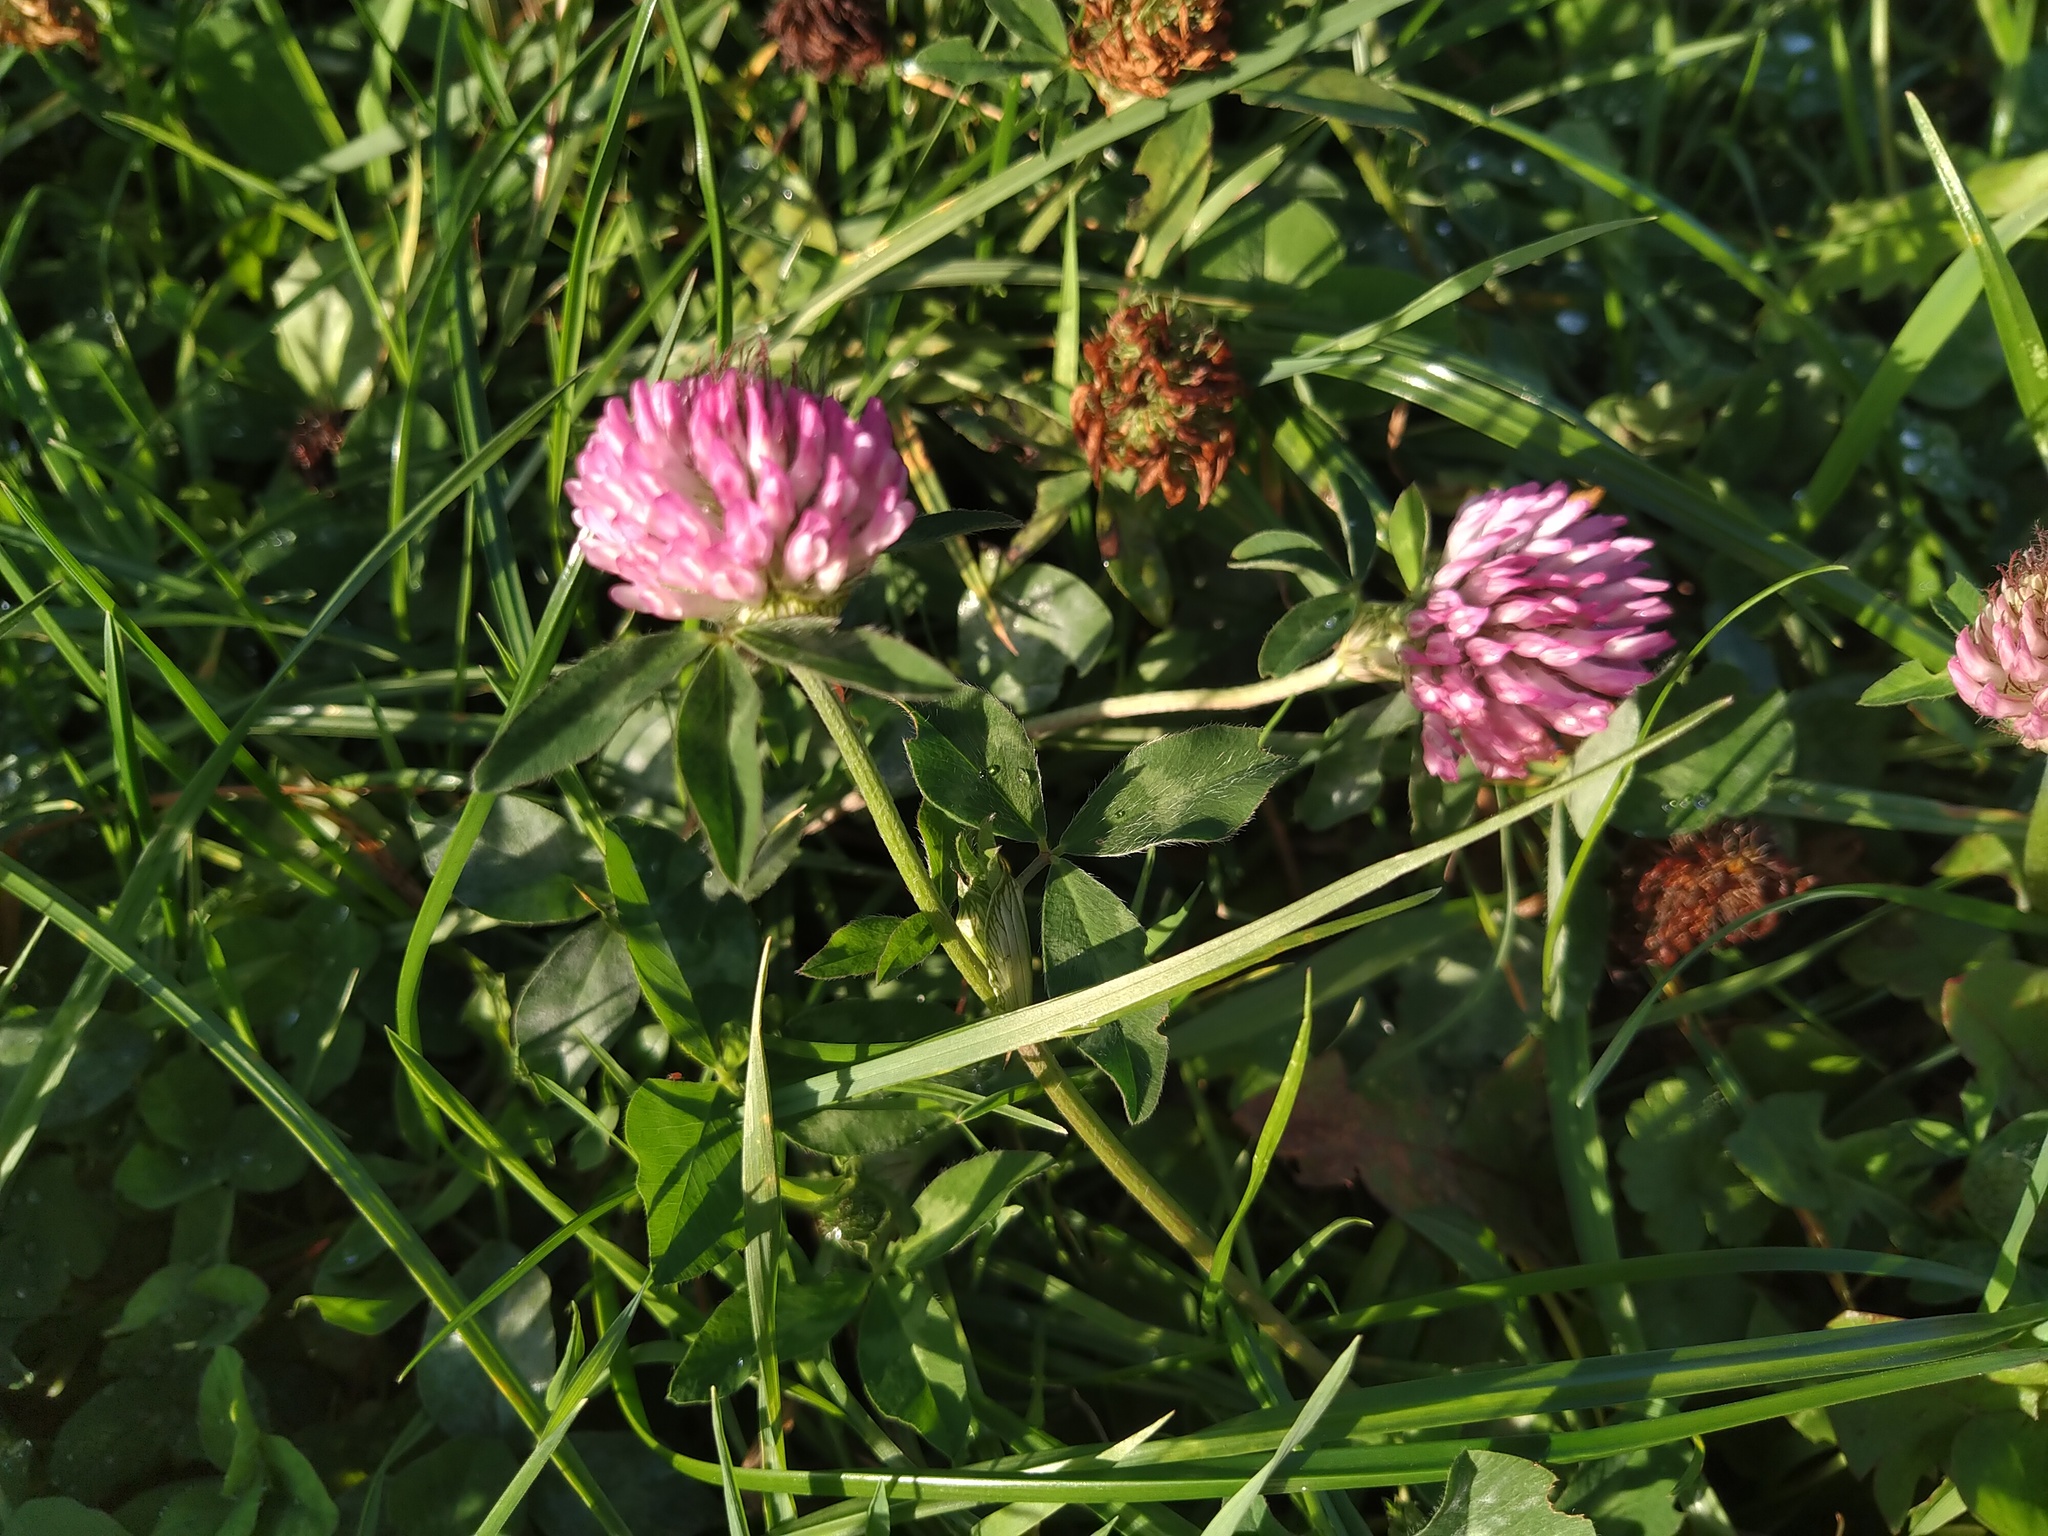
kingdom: Plantae
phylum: Tracheophyta
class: Magnoliopsida
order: Fabales
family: Fabaceae
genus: Trifolium
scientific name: Trifolium pratense
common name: Red clover
